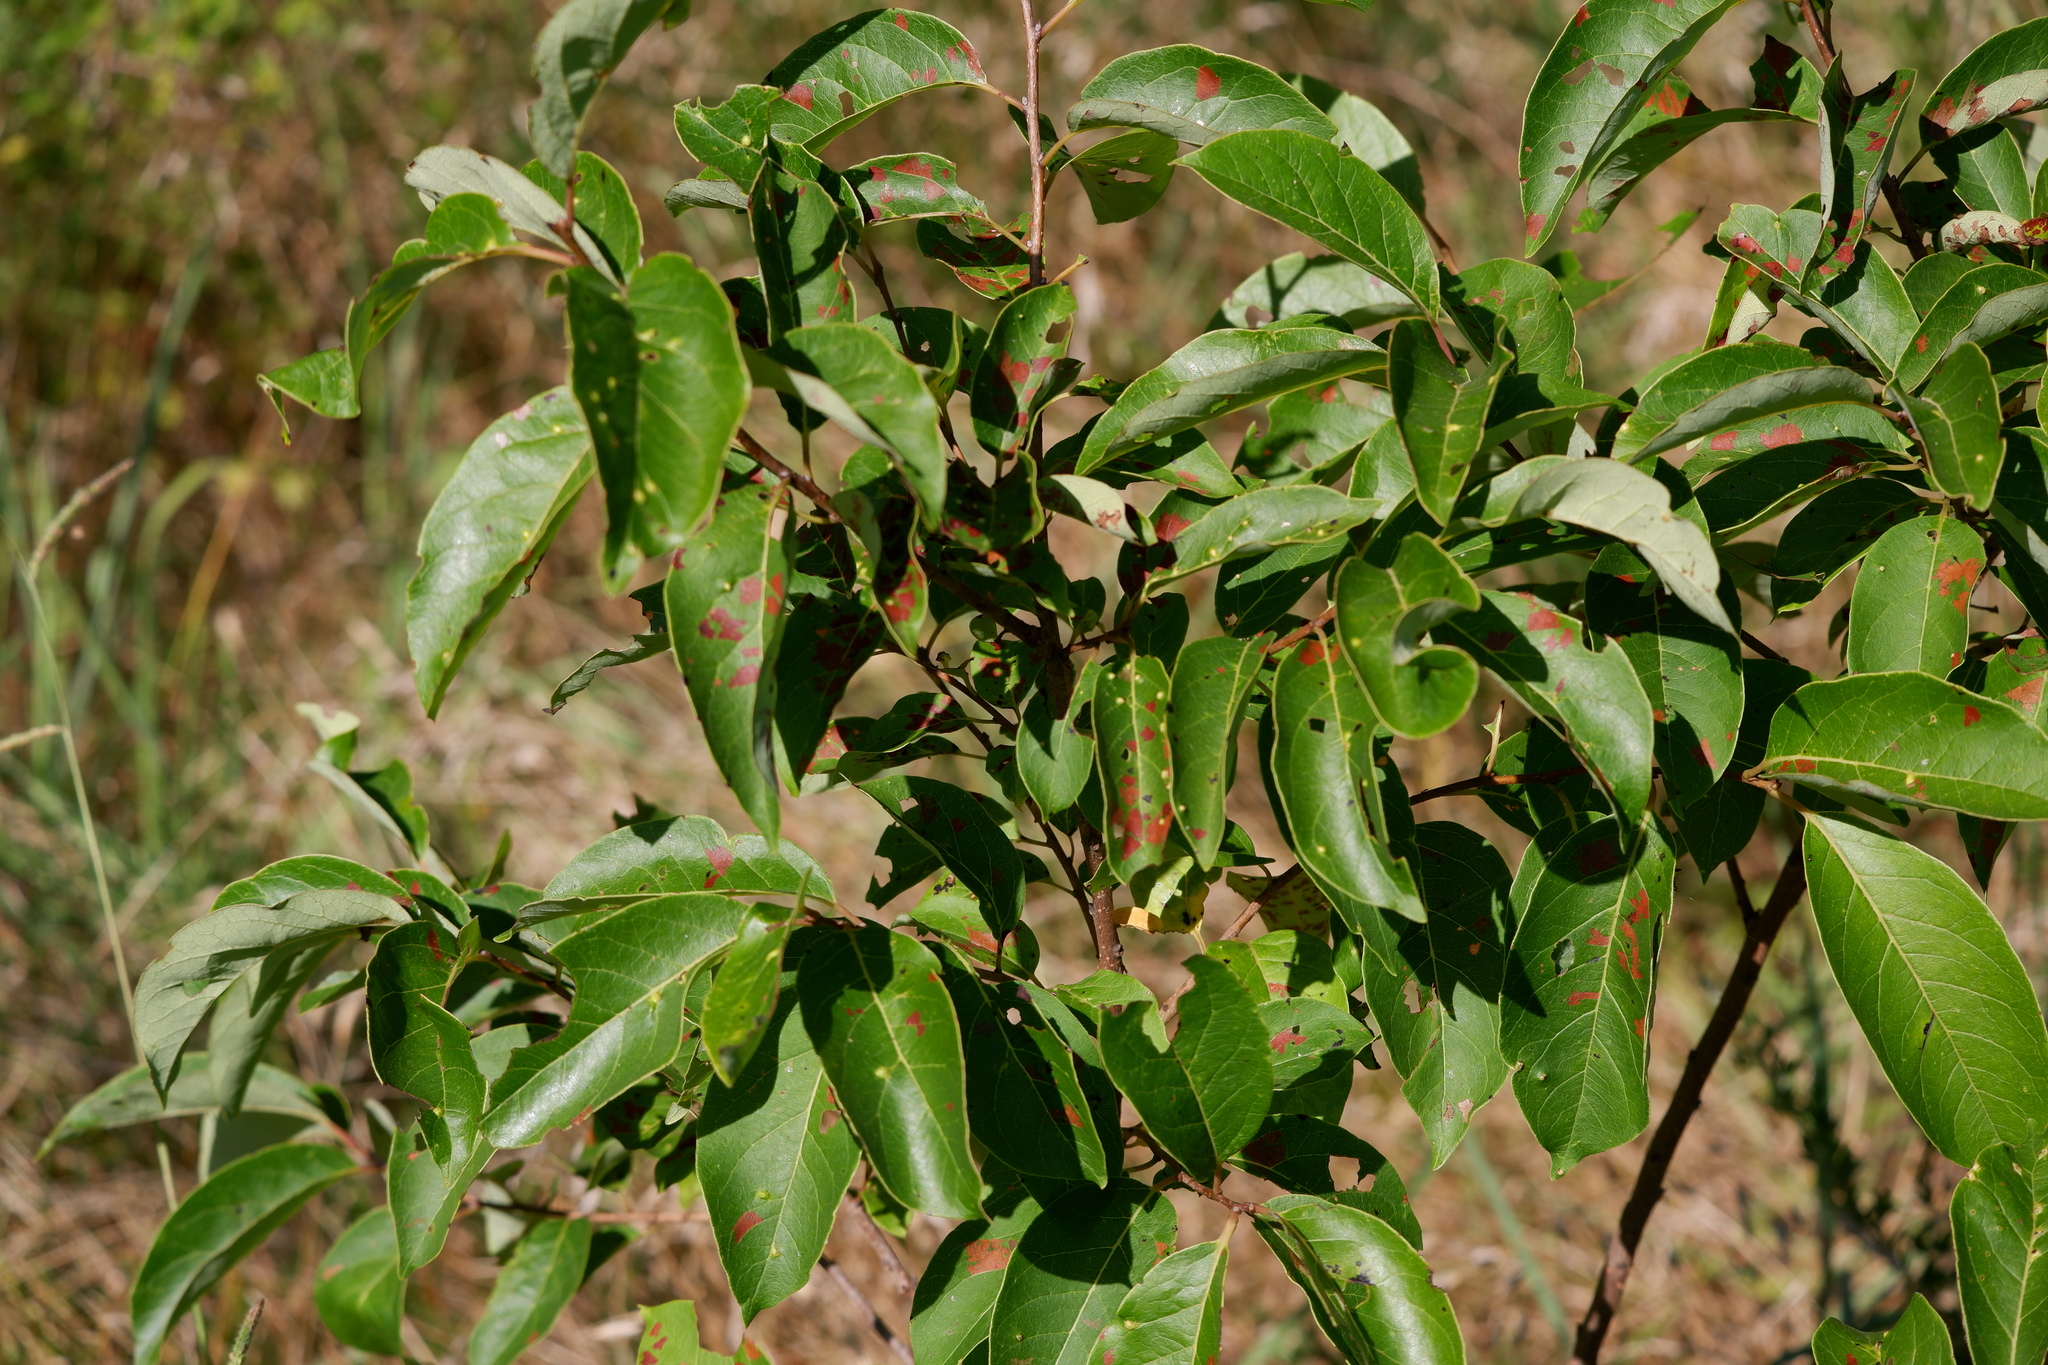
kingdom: Plantae
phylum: Tracheophyta
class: Magnoliopsida
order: Ericales
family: Ebenaceae
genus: Diospyros
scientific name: Diospyros virginiana
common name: Persimmon
